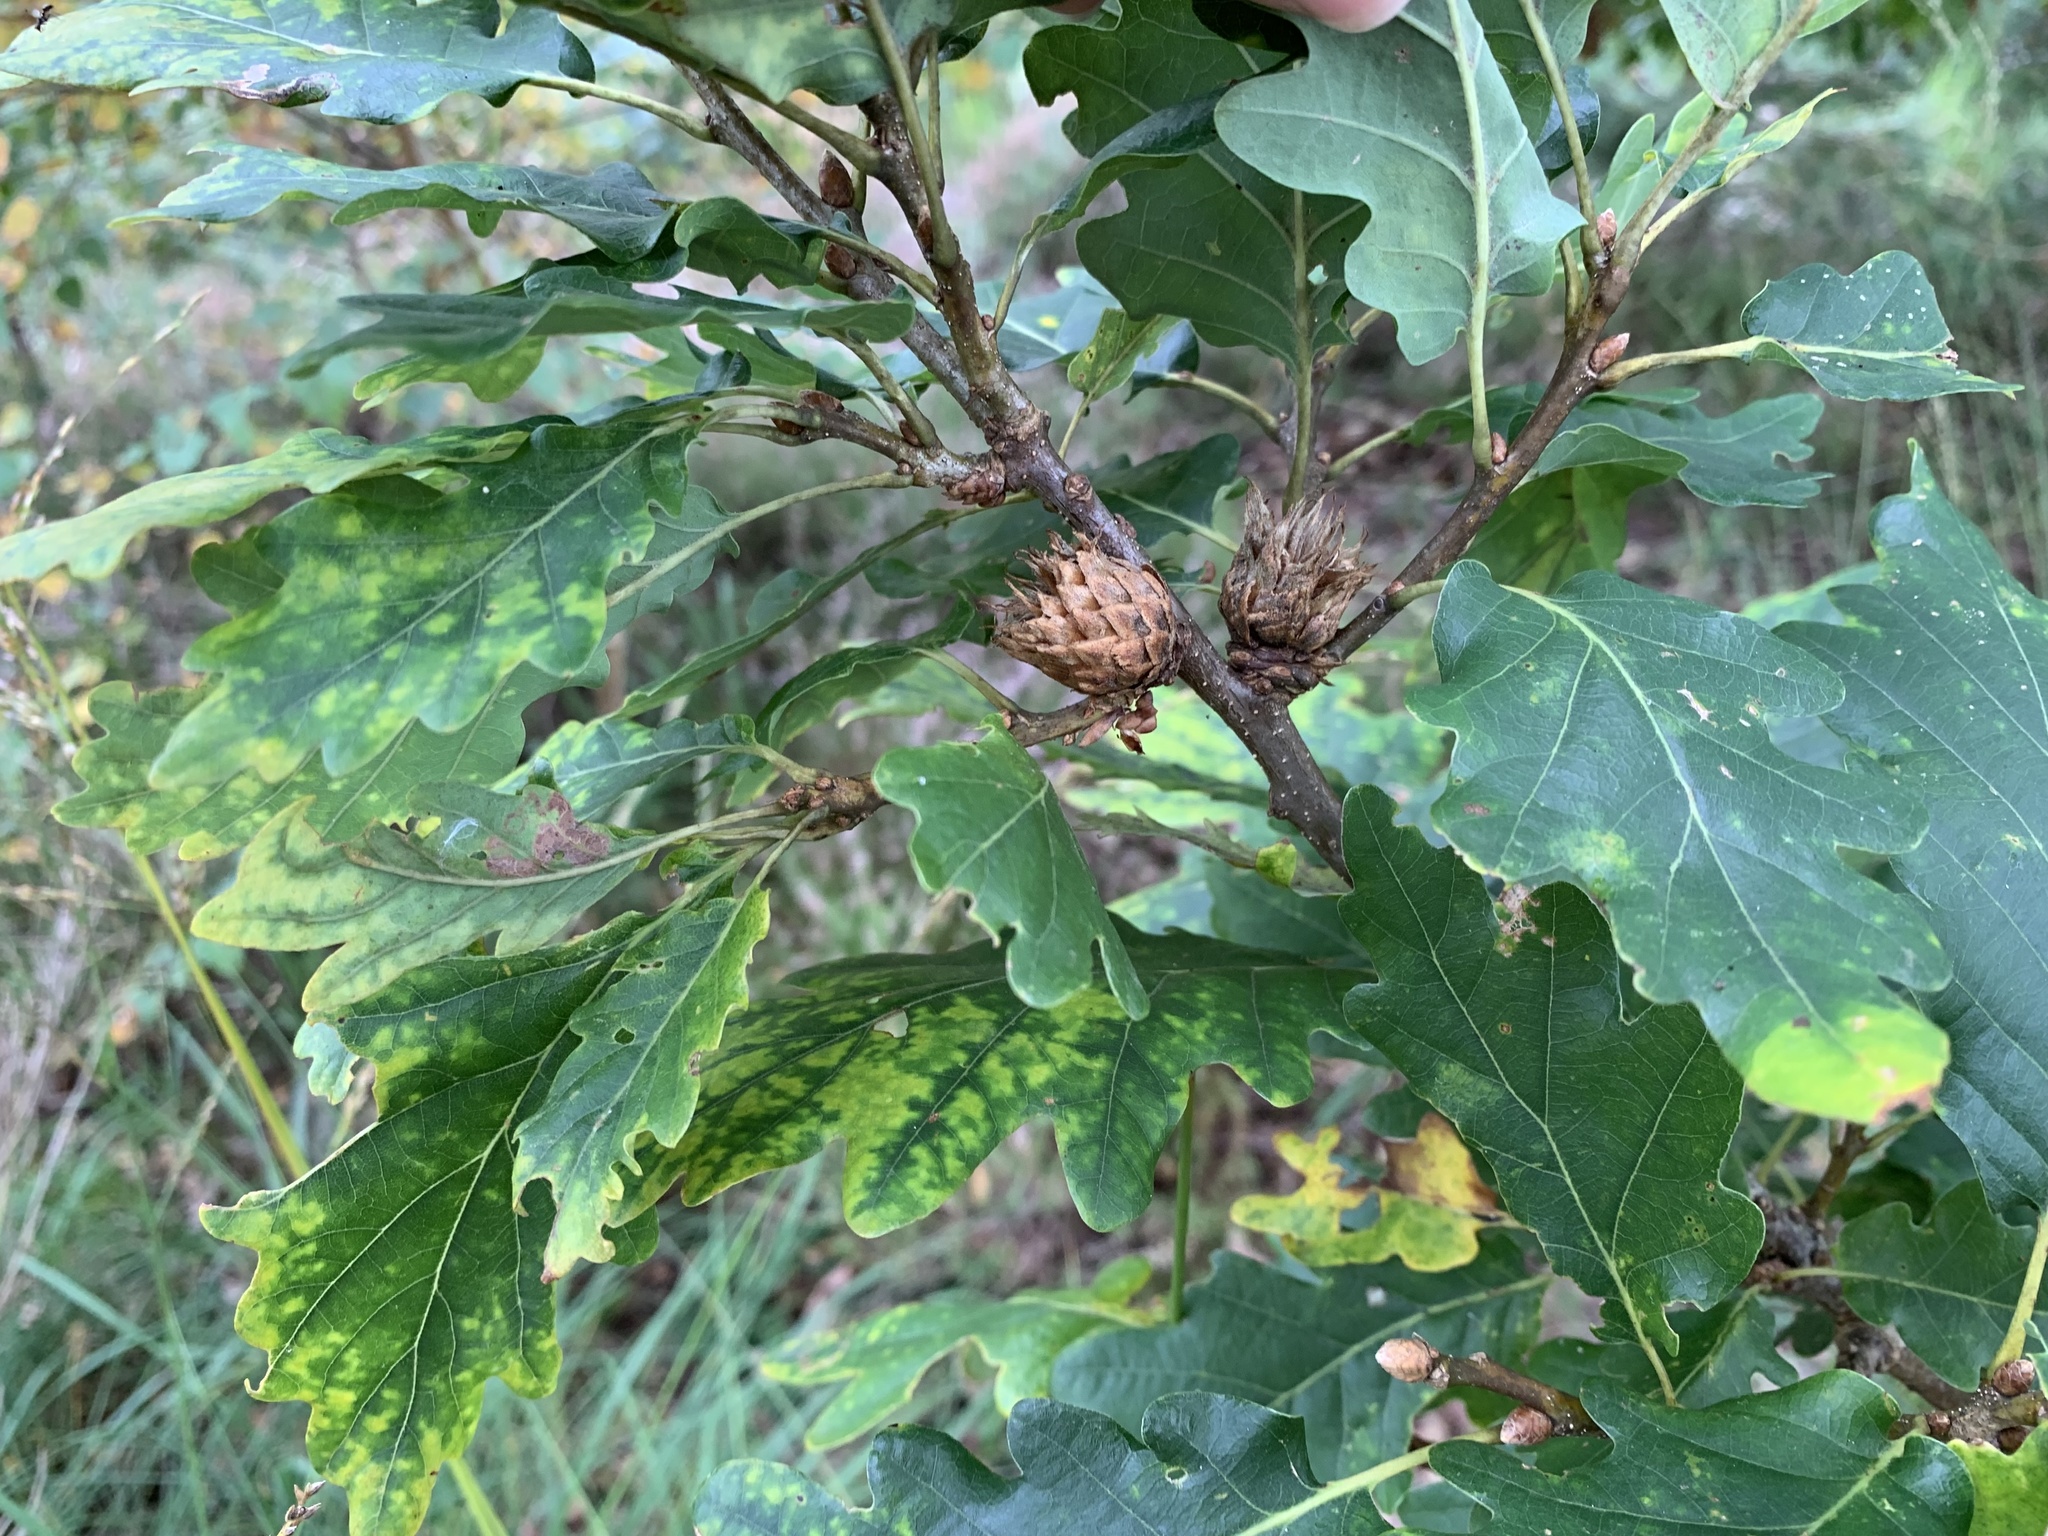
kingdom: Animalia
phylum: Arthropoda
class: Insecta
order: Hymenoptera
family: Cynipidae
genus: Andricus
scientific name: Andricus foecundatrix
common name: Artichoke gall
